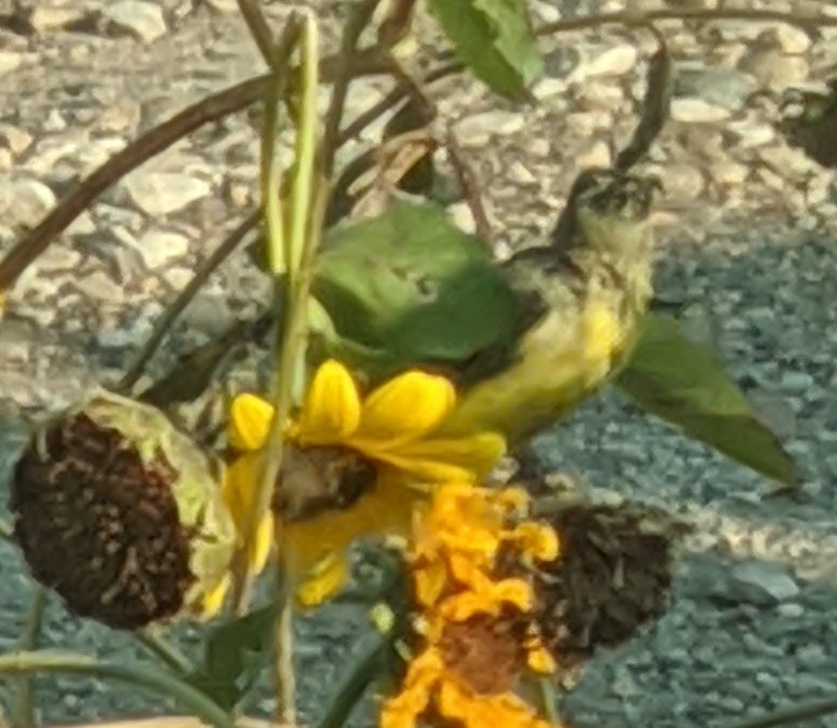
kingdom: Animalia
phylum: Chordata
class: Aves
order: Passeriformes
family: Fringillidae
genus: Spinus
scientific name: Spinus psaltria
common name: Lesser goldfinch
